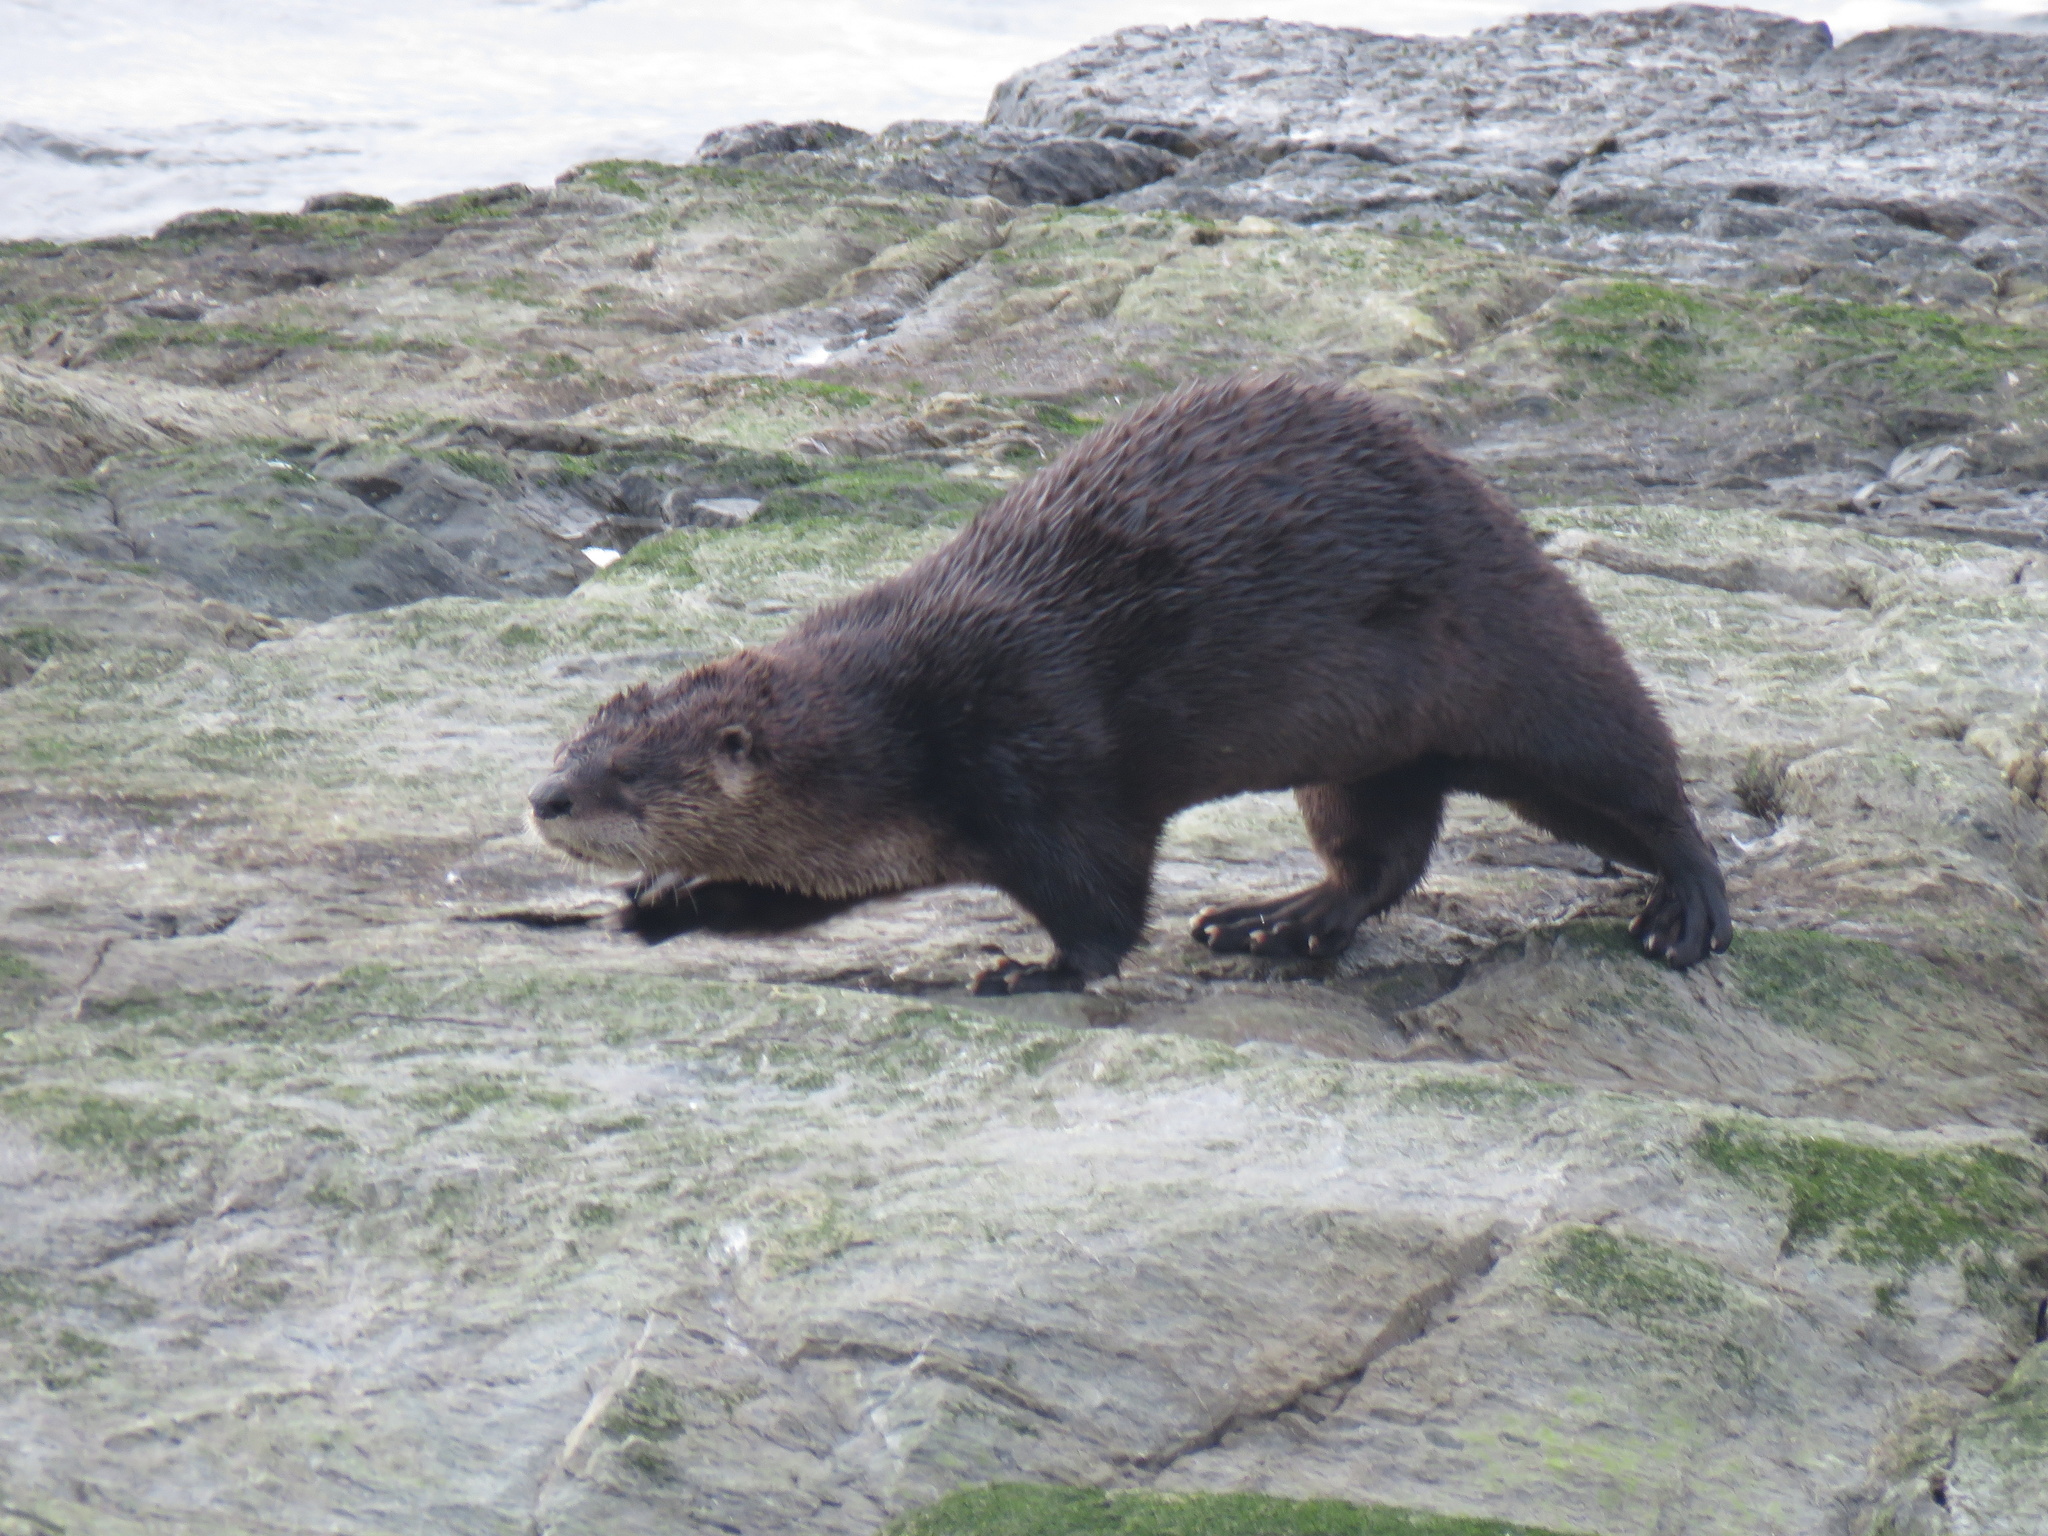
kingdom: Animalia
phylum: Chordata
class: Mammalia
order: Carnivora
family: Mustelidae
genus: Lontra
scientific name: Lontra canadensis
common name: North american river otter
